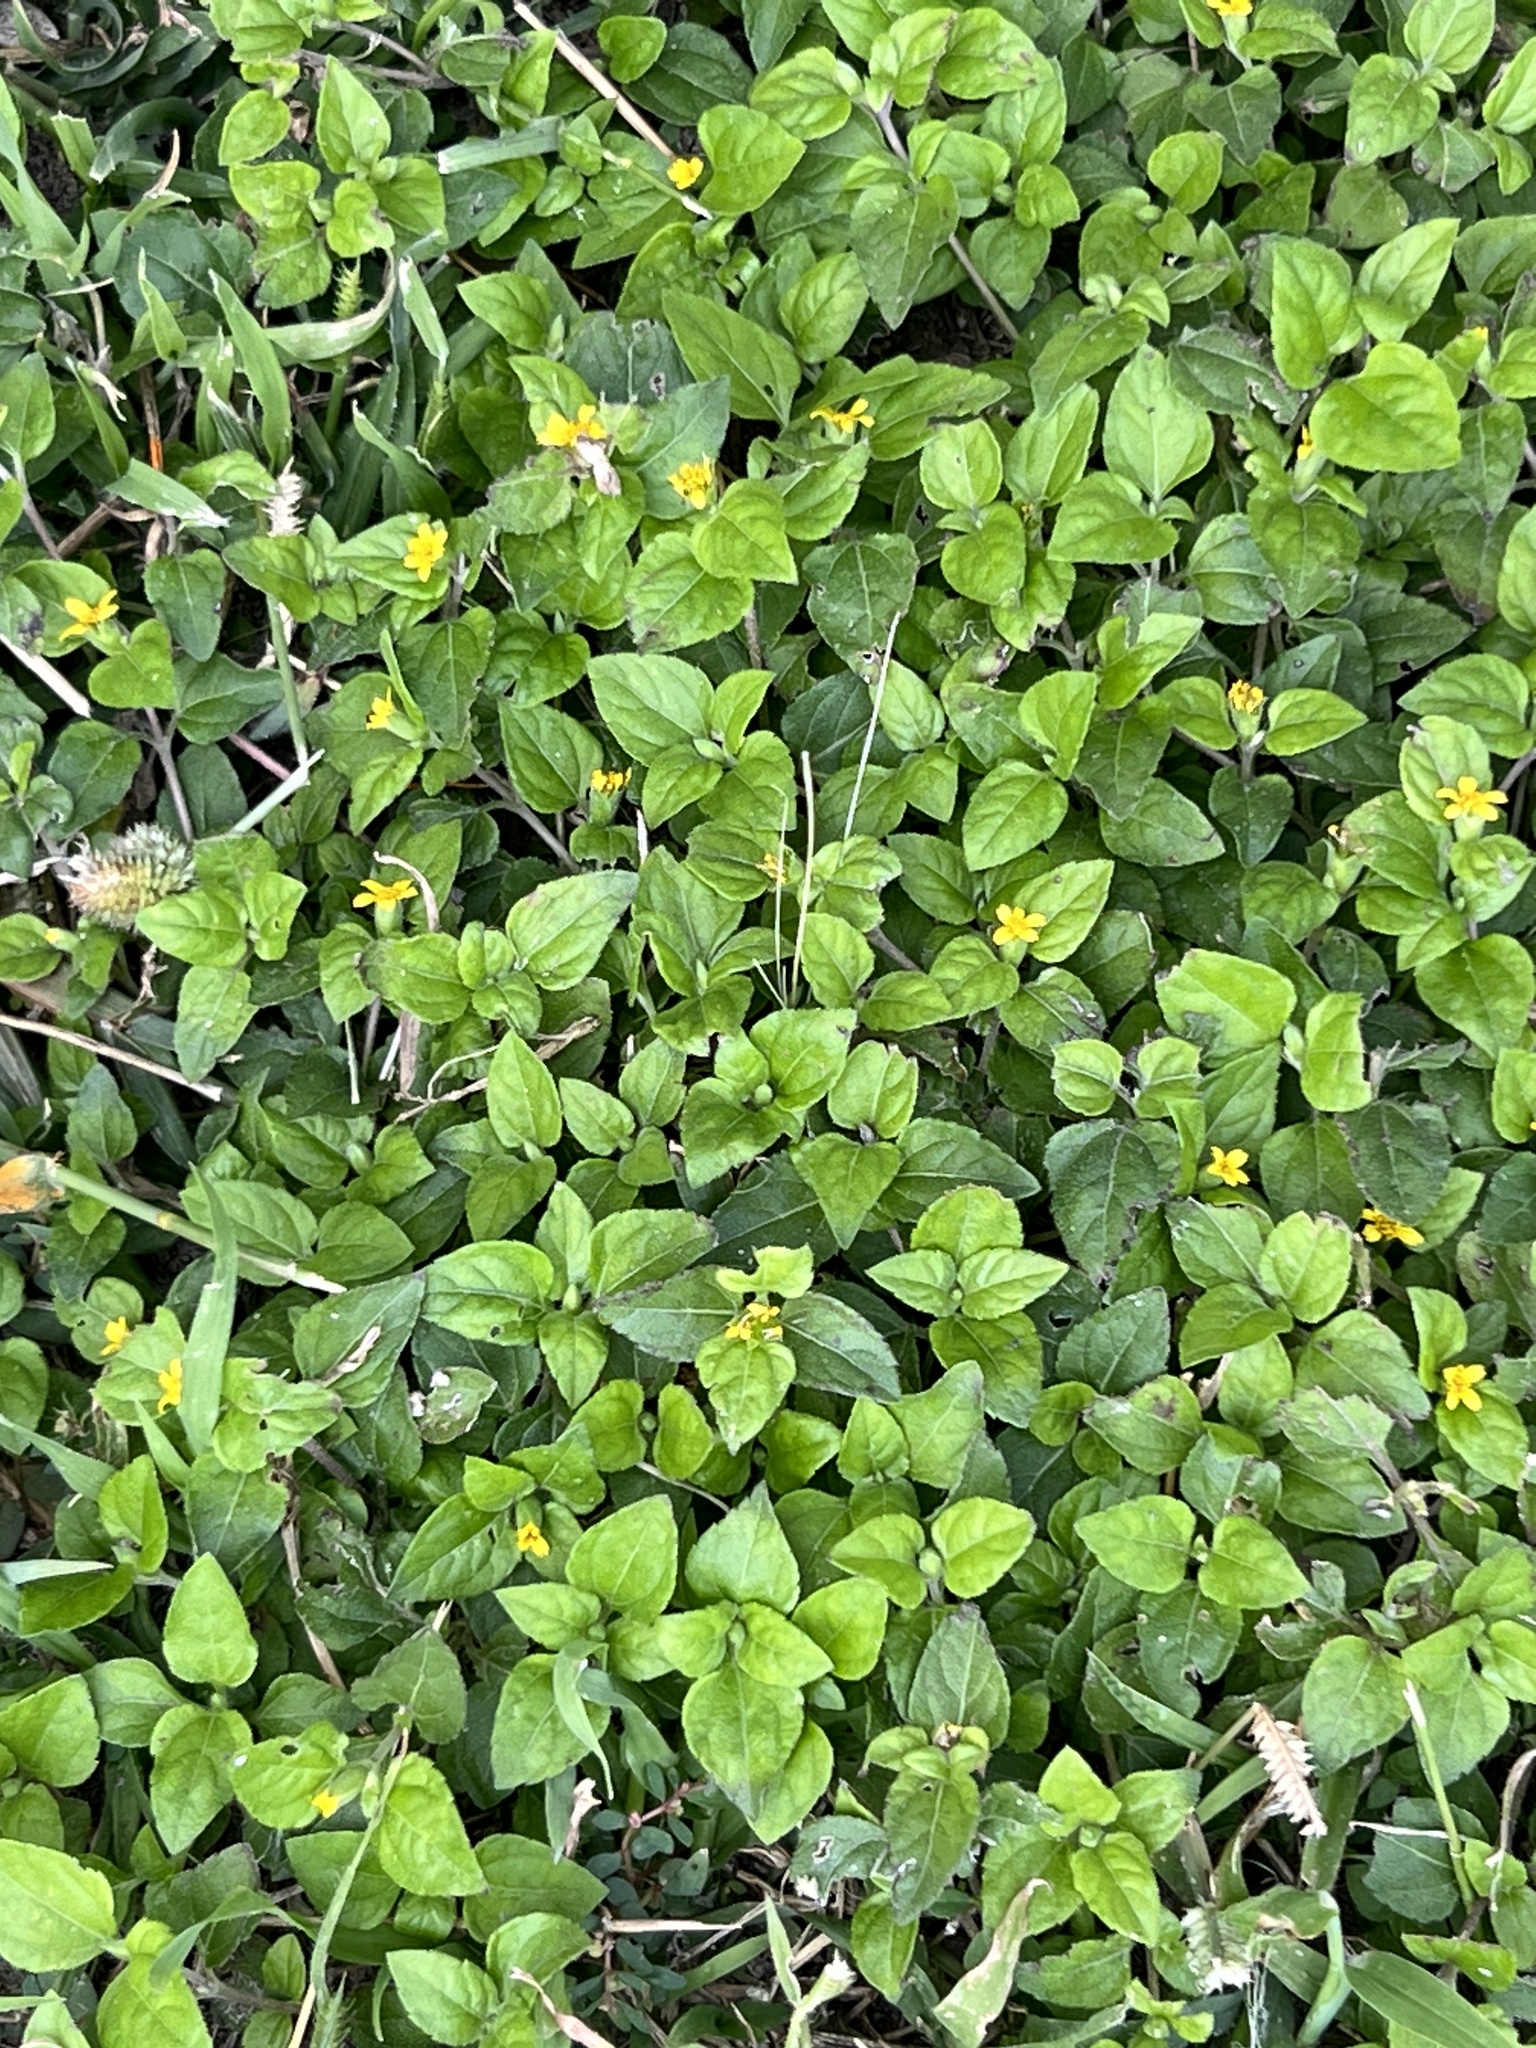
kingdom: Plantae
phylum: Tracheophyta
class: Magnoliopsida
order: Asterales
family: Asteraceae
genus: Calyptocarpus
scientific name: Calyptocarpus vialis
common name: Straggler daisy
